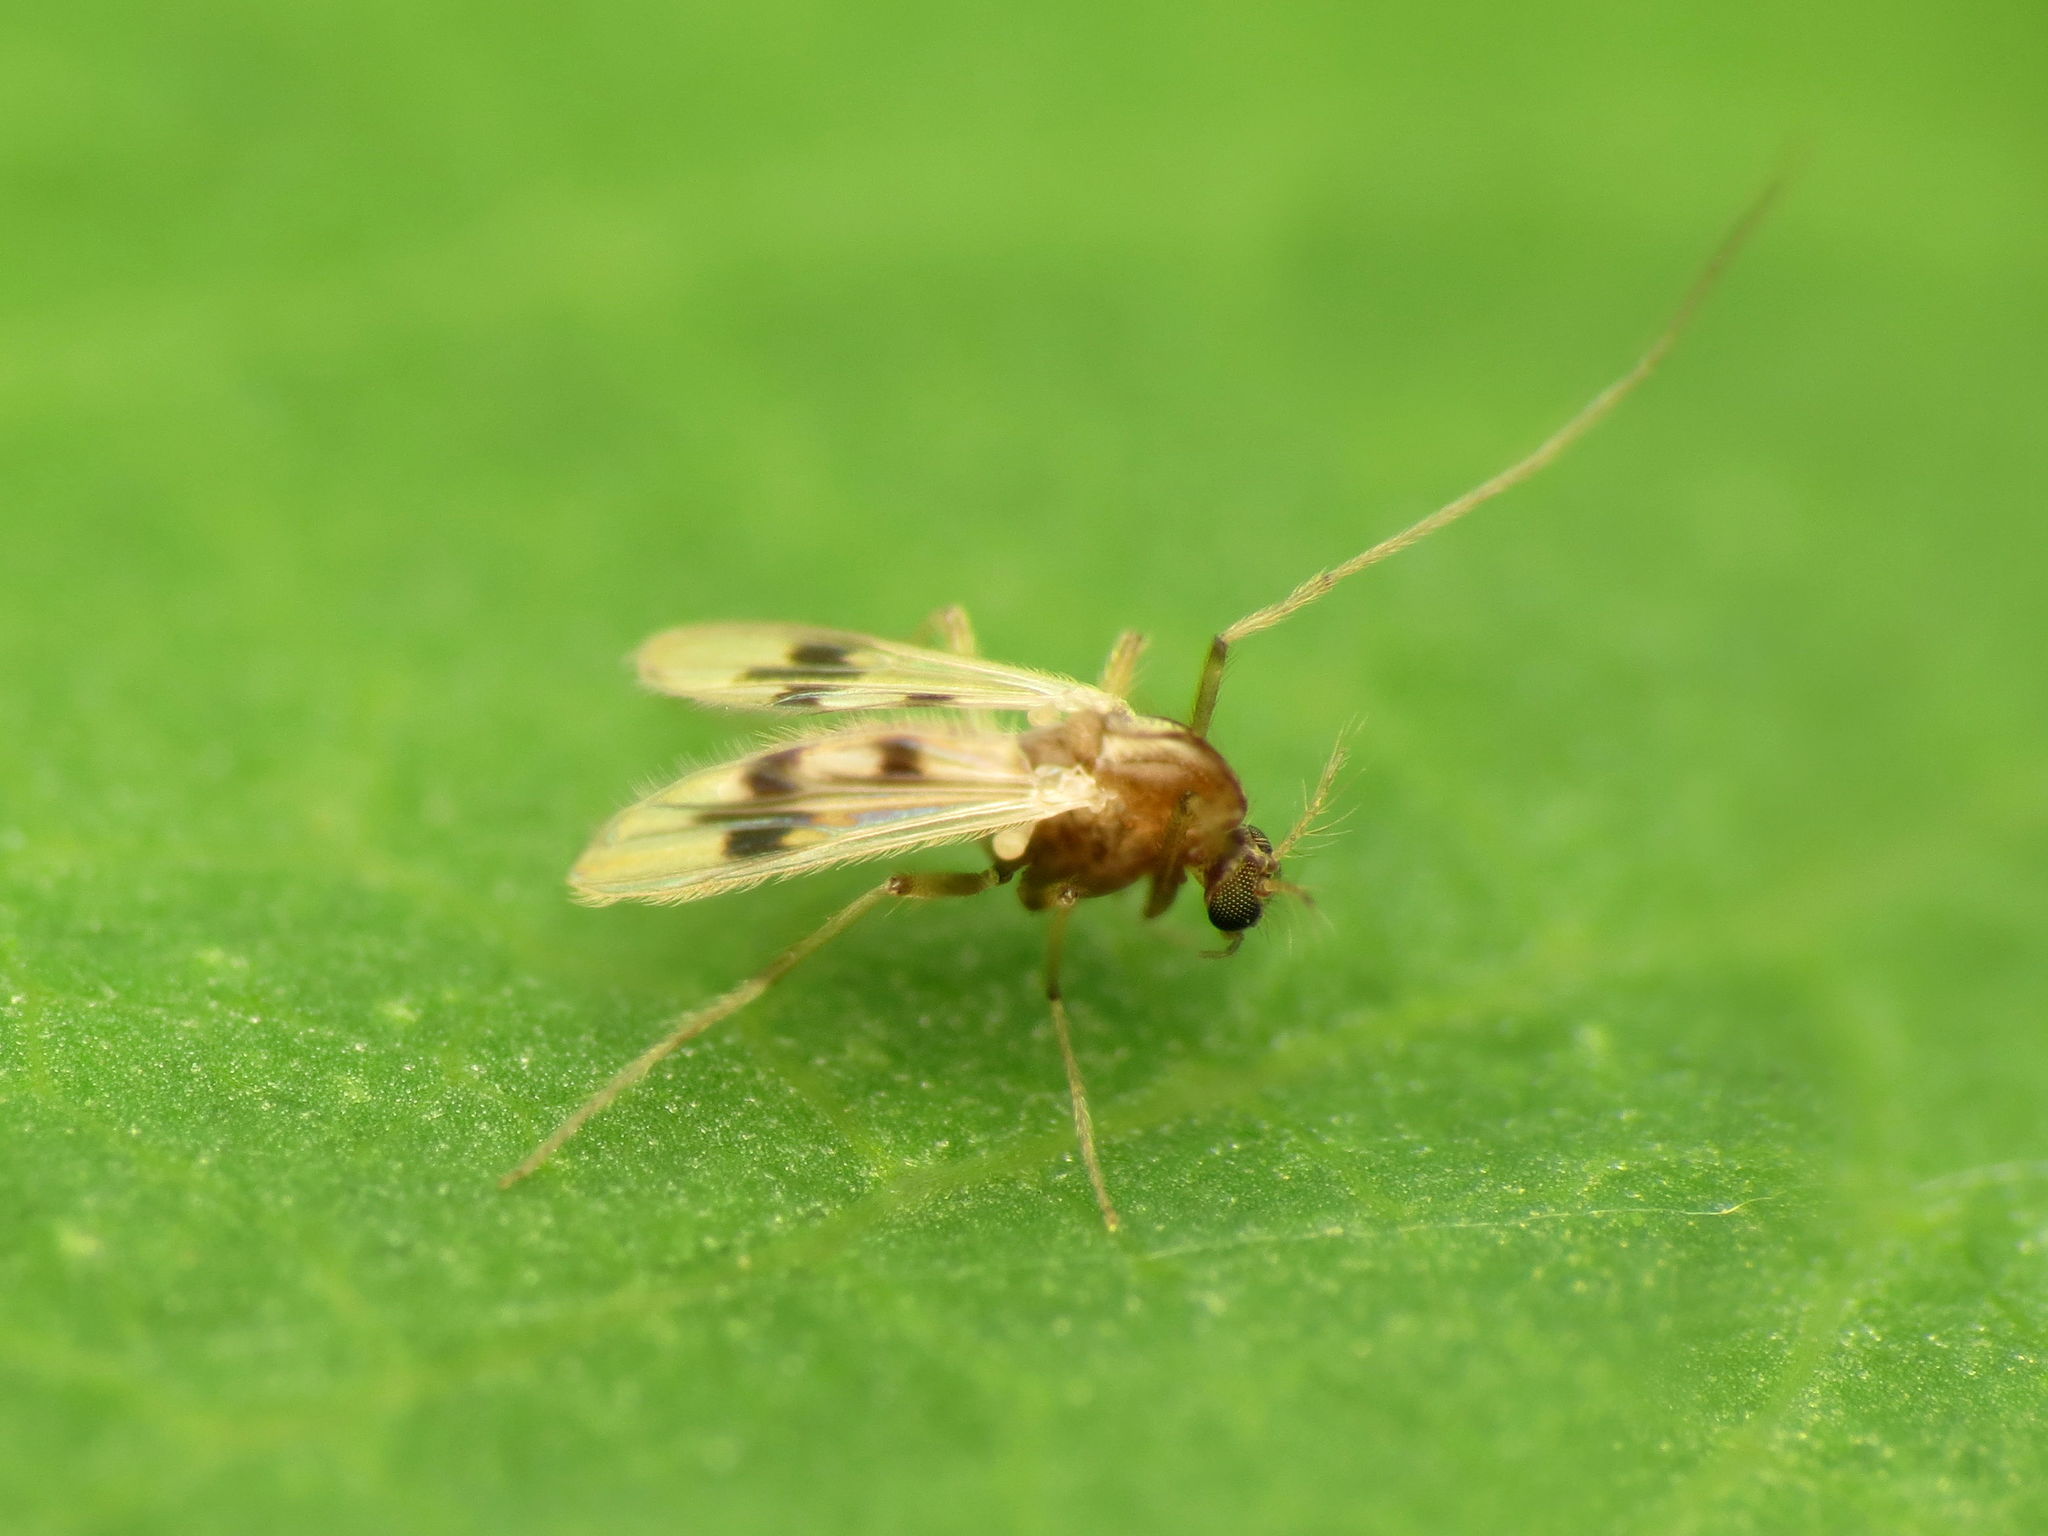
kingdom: Animalia
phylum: Arthropoda
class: Insecta
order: Diptera
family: Chironomidae
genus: Polypedilum
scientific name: Polypedilum scalaenum
